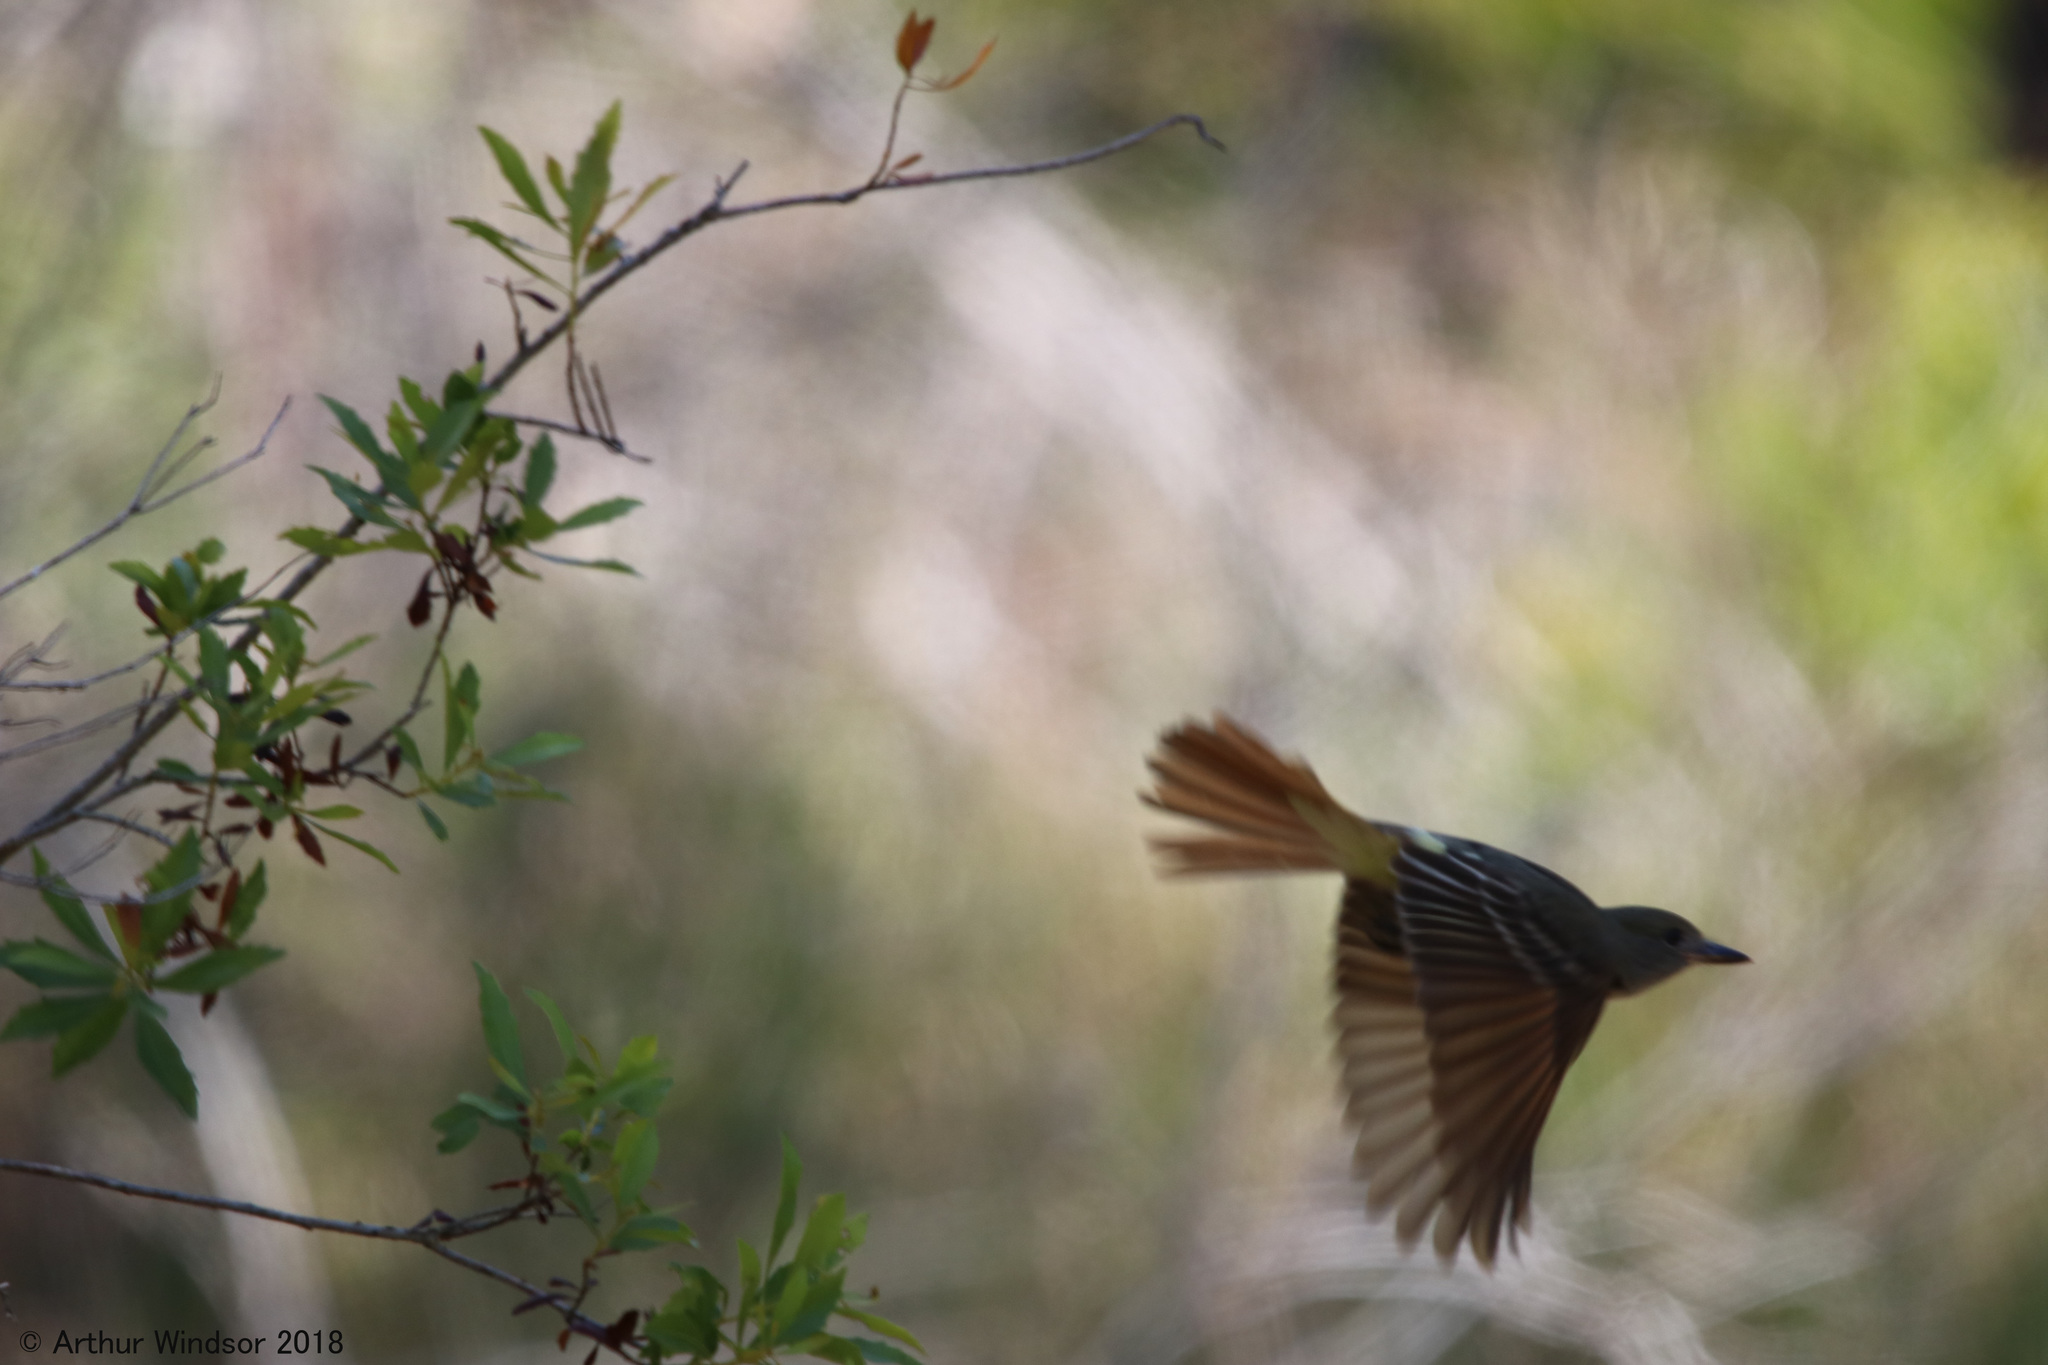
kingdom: Animalia
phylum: Chordata
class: Aves
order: Passeriformes
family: Tyrannidae
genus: Myiarchus
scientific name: Myiarchus crinitus
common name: Great crested flycatcher
